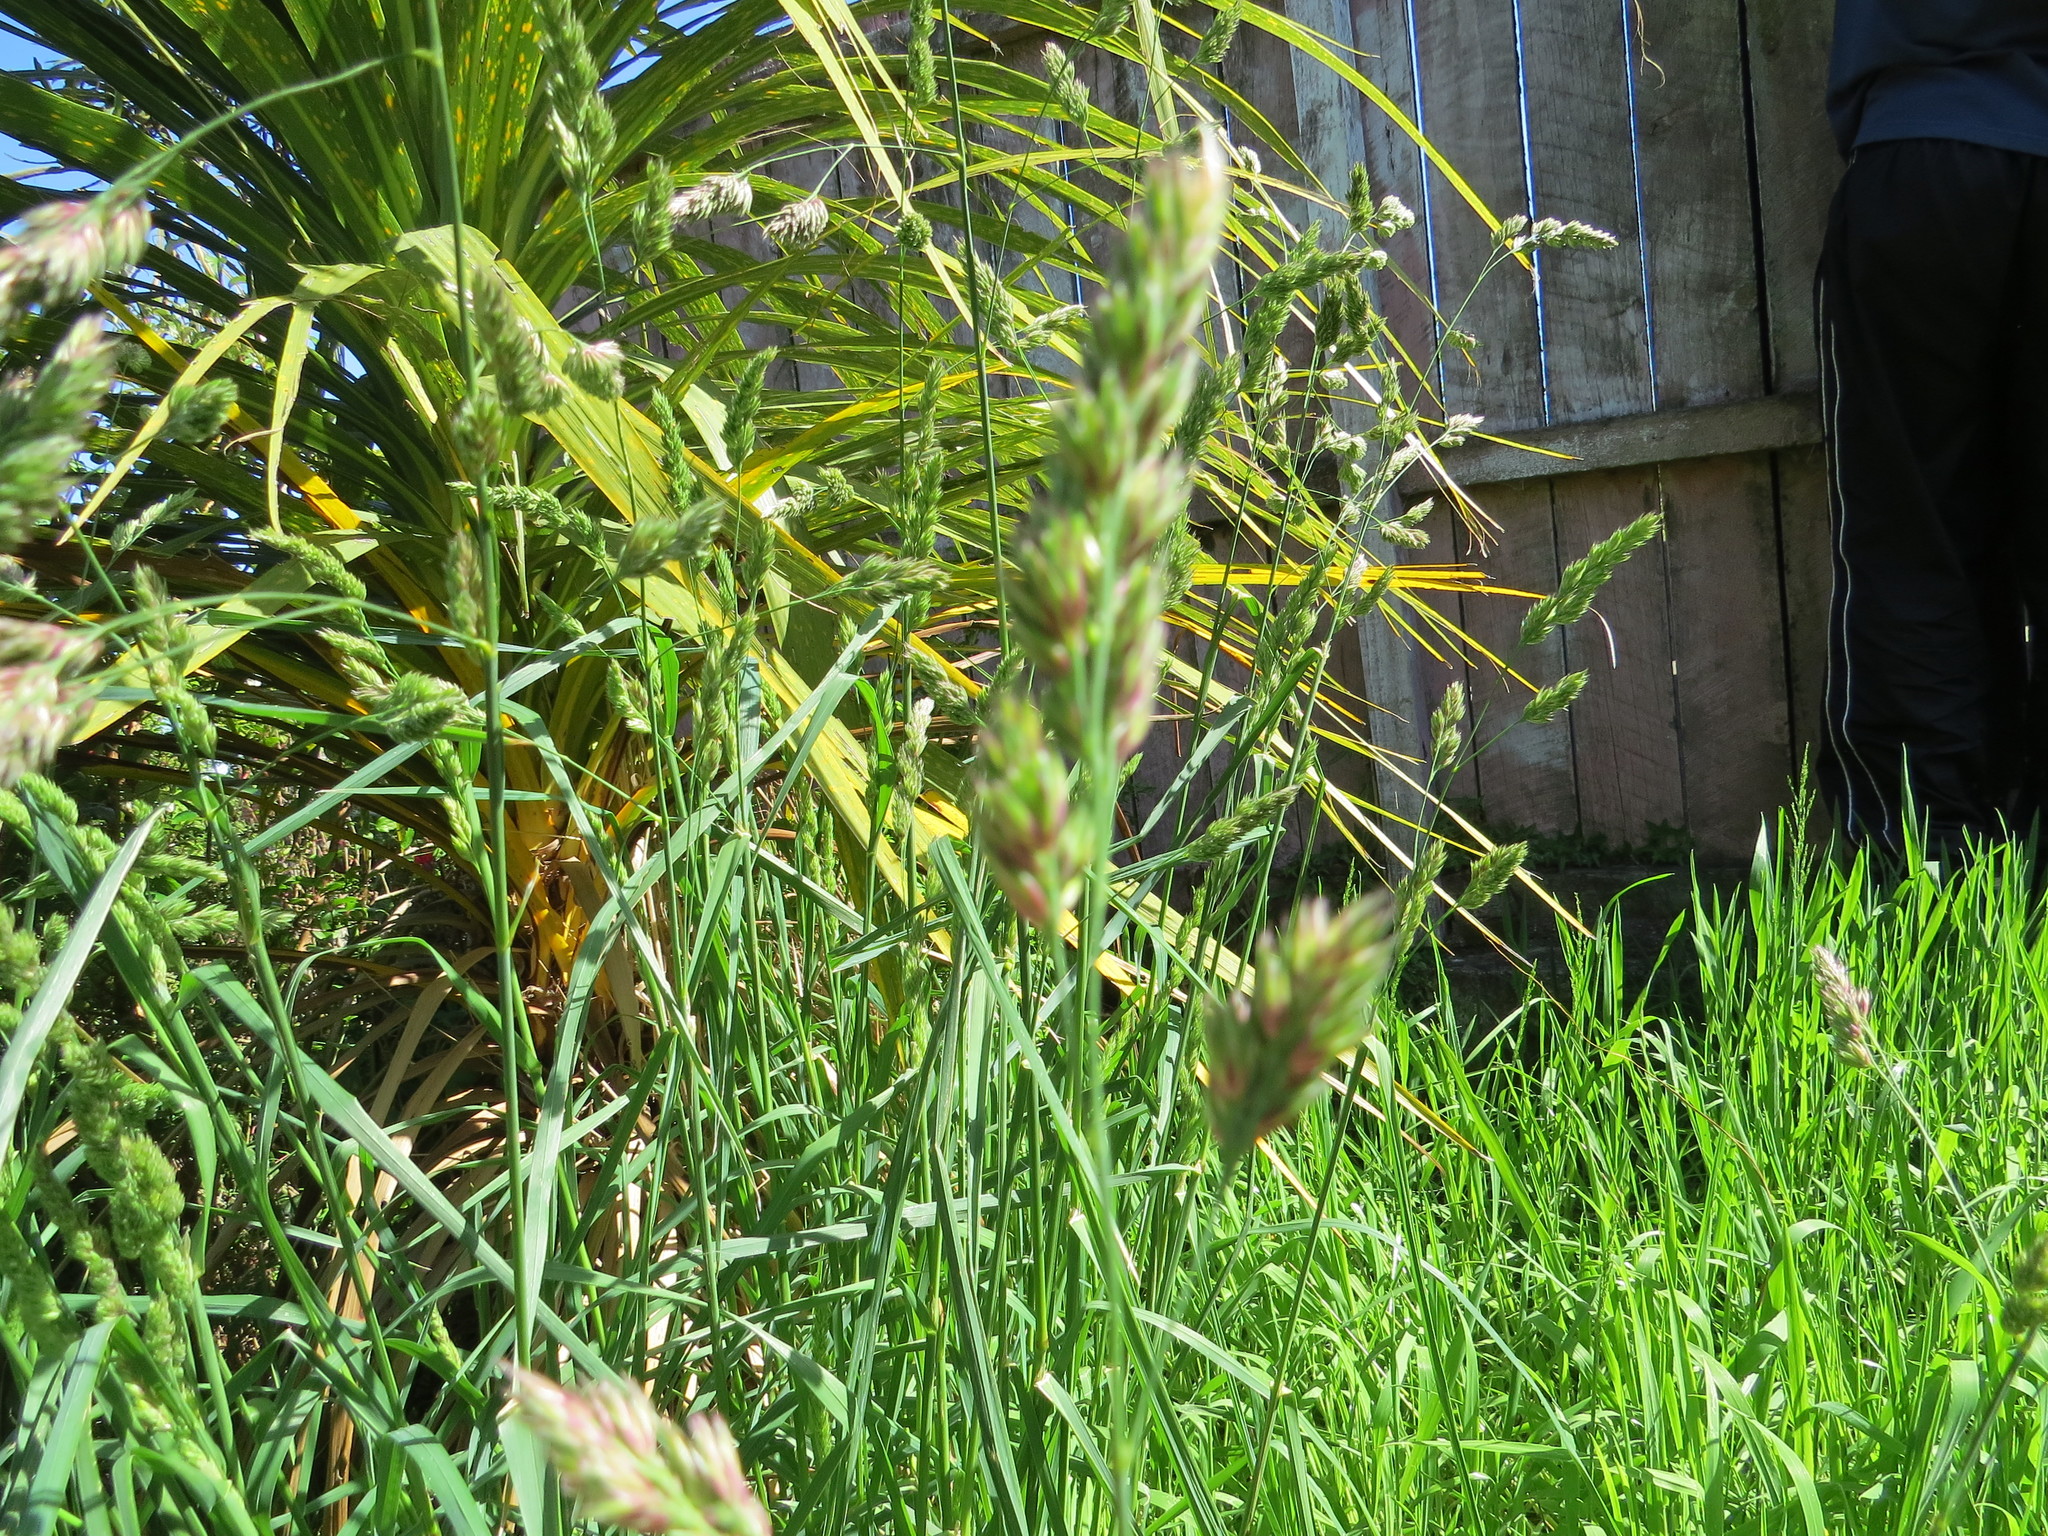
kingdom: Plantae
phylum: Tracheophyta
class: Liliopsida
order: Poales
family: Poaceae
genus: Dactylis
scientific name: Dactylis glomerata
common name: Orchardgrass
